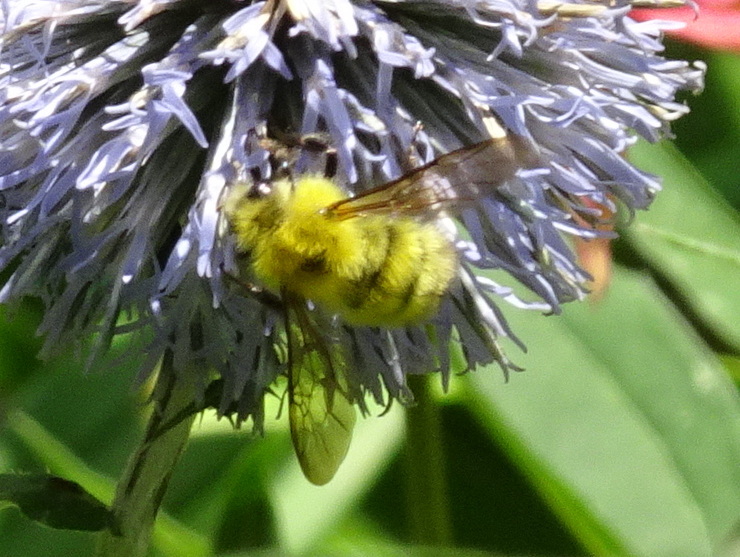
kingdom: Animalia
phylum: Arthropoda
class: Insecta
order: Hymenoptera
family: Apidae
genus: Bombus
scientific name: Bombus perplexus
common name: Confusing bumble bee
